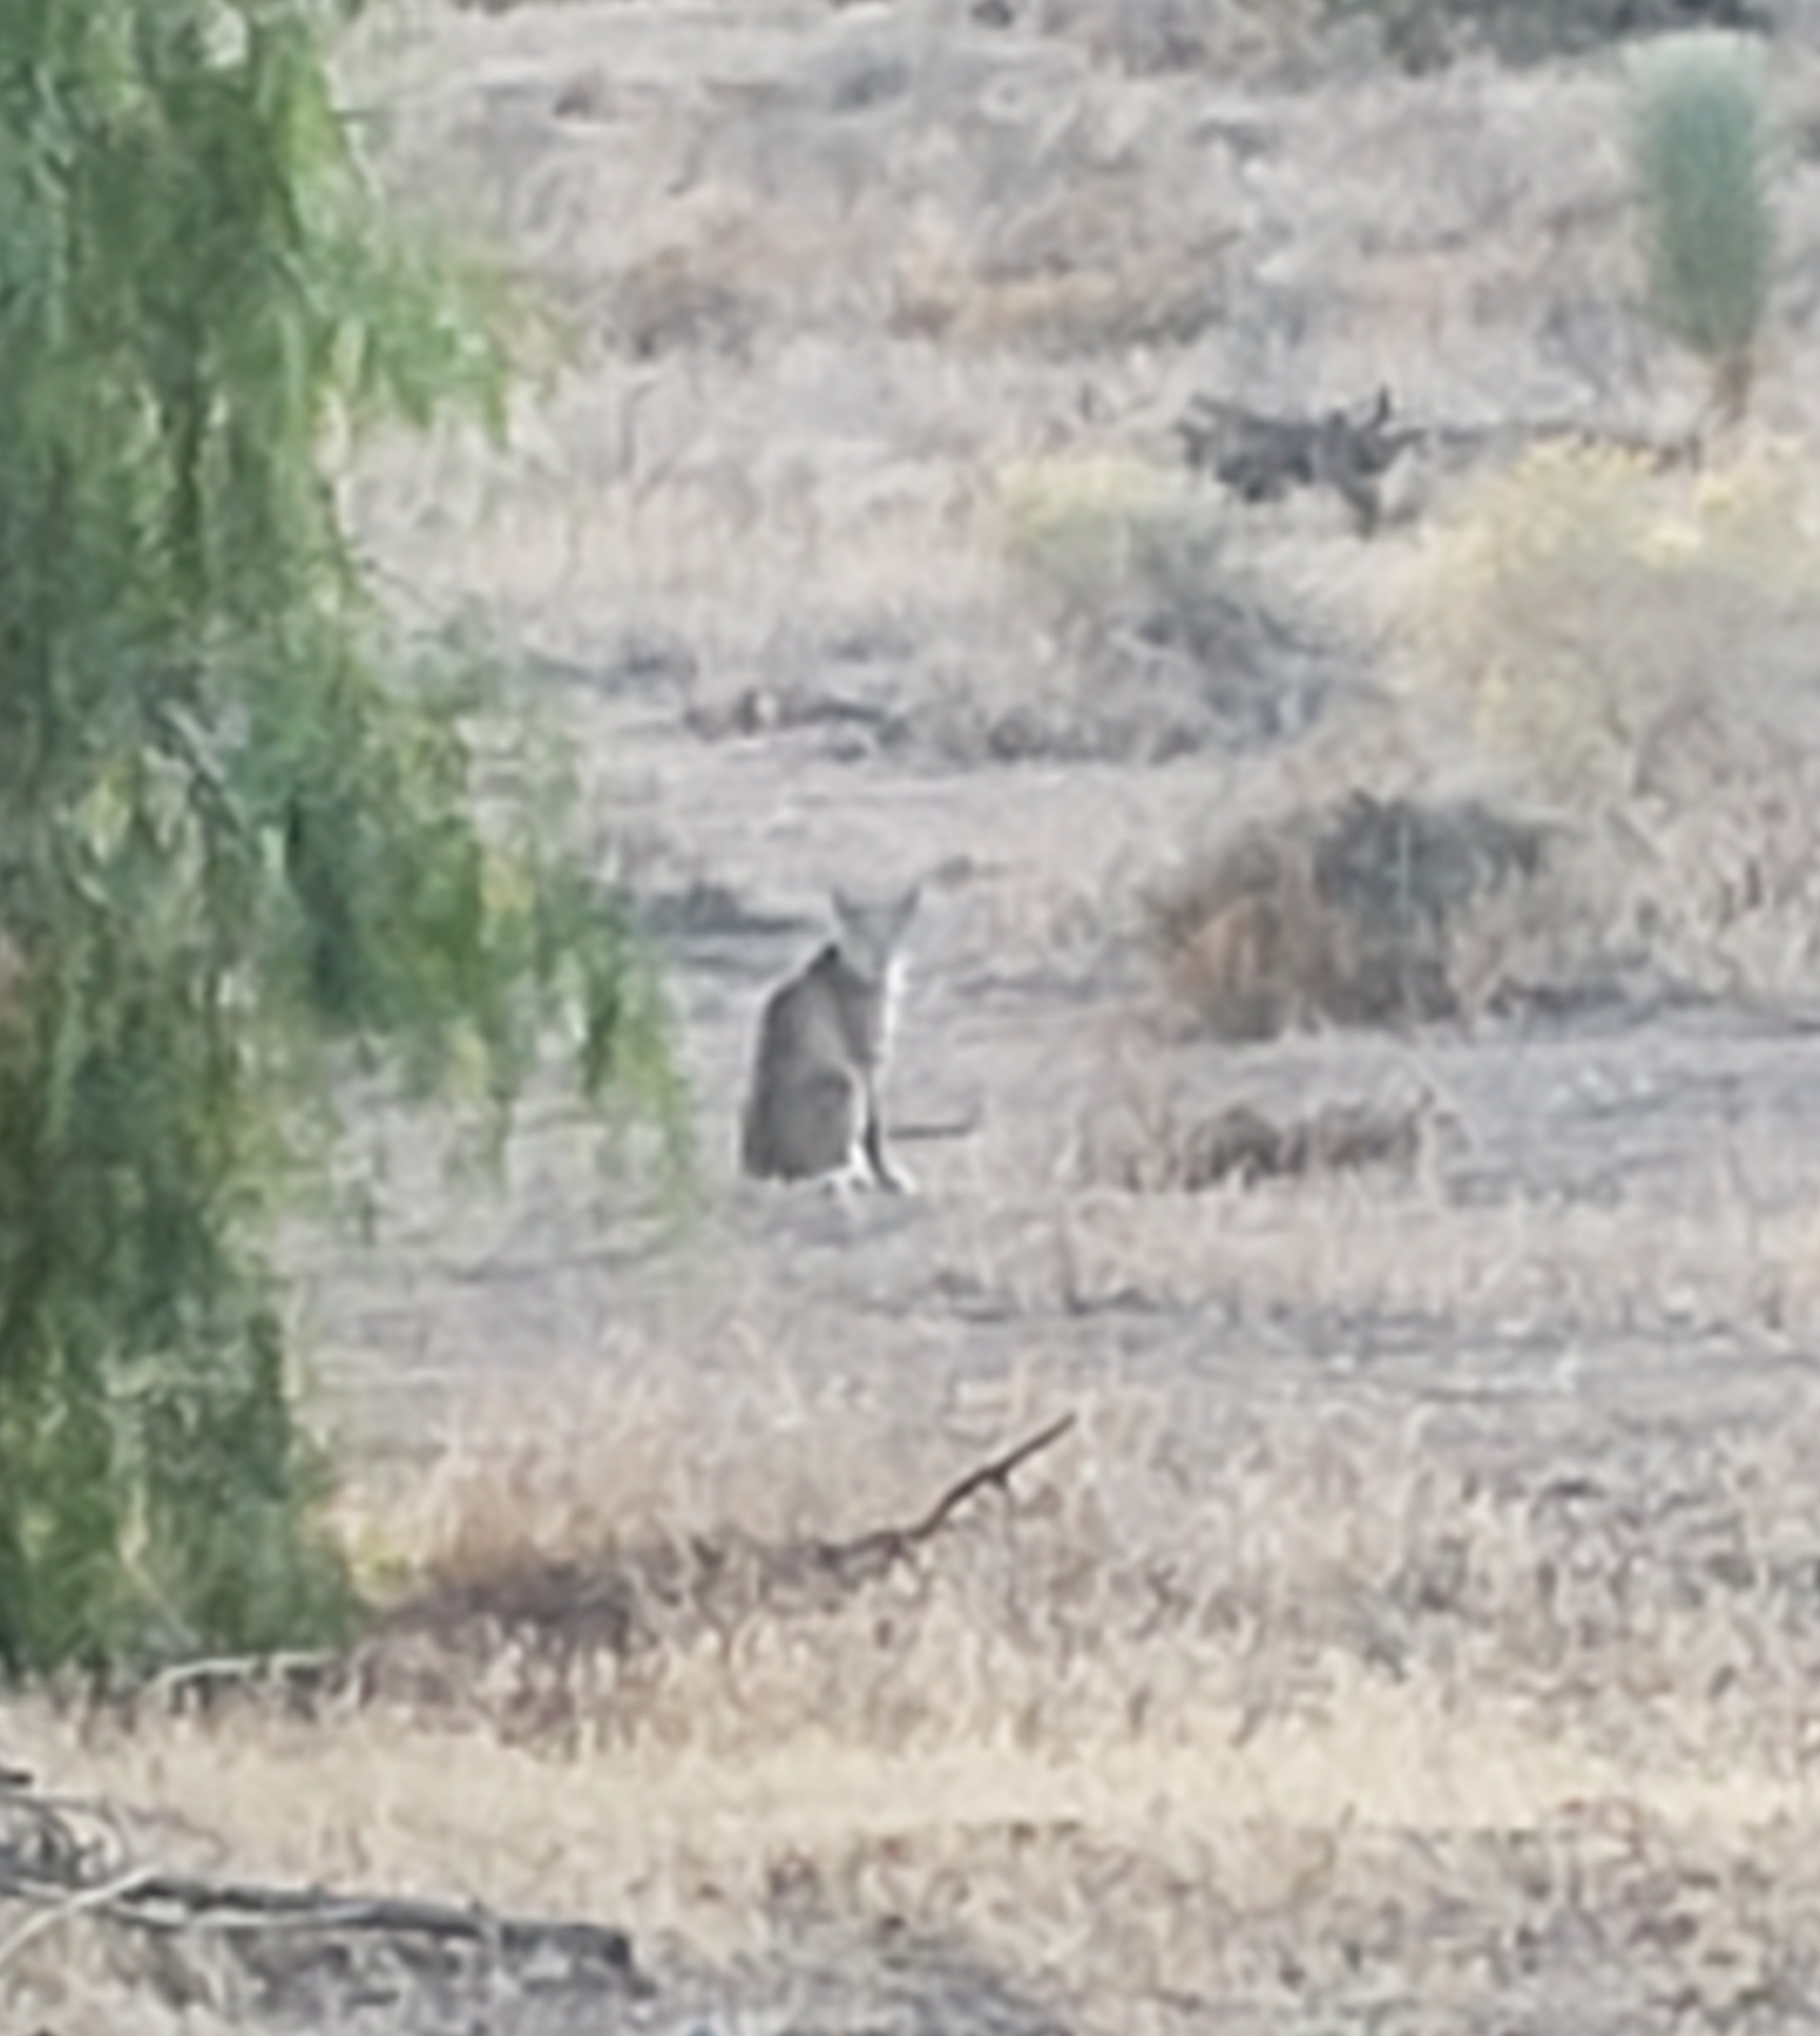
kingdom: Animalia
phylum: Chordata
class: Mammalia
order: Carnivora
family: Felidae
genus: Lynx
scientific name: Lynx rufus
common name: Bobcat
